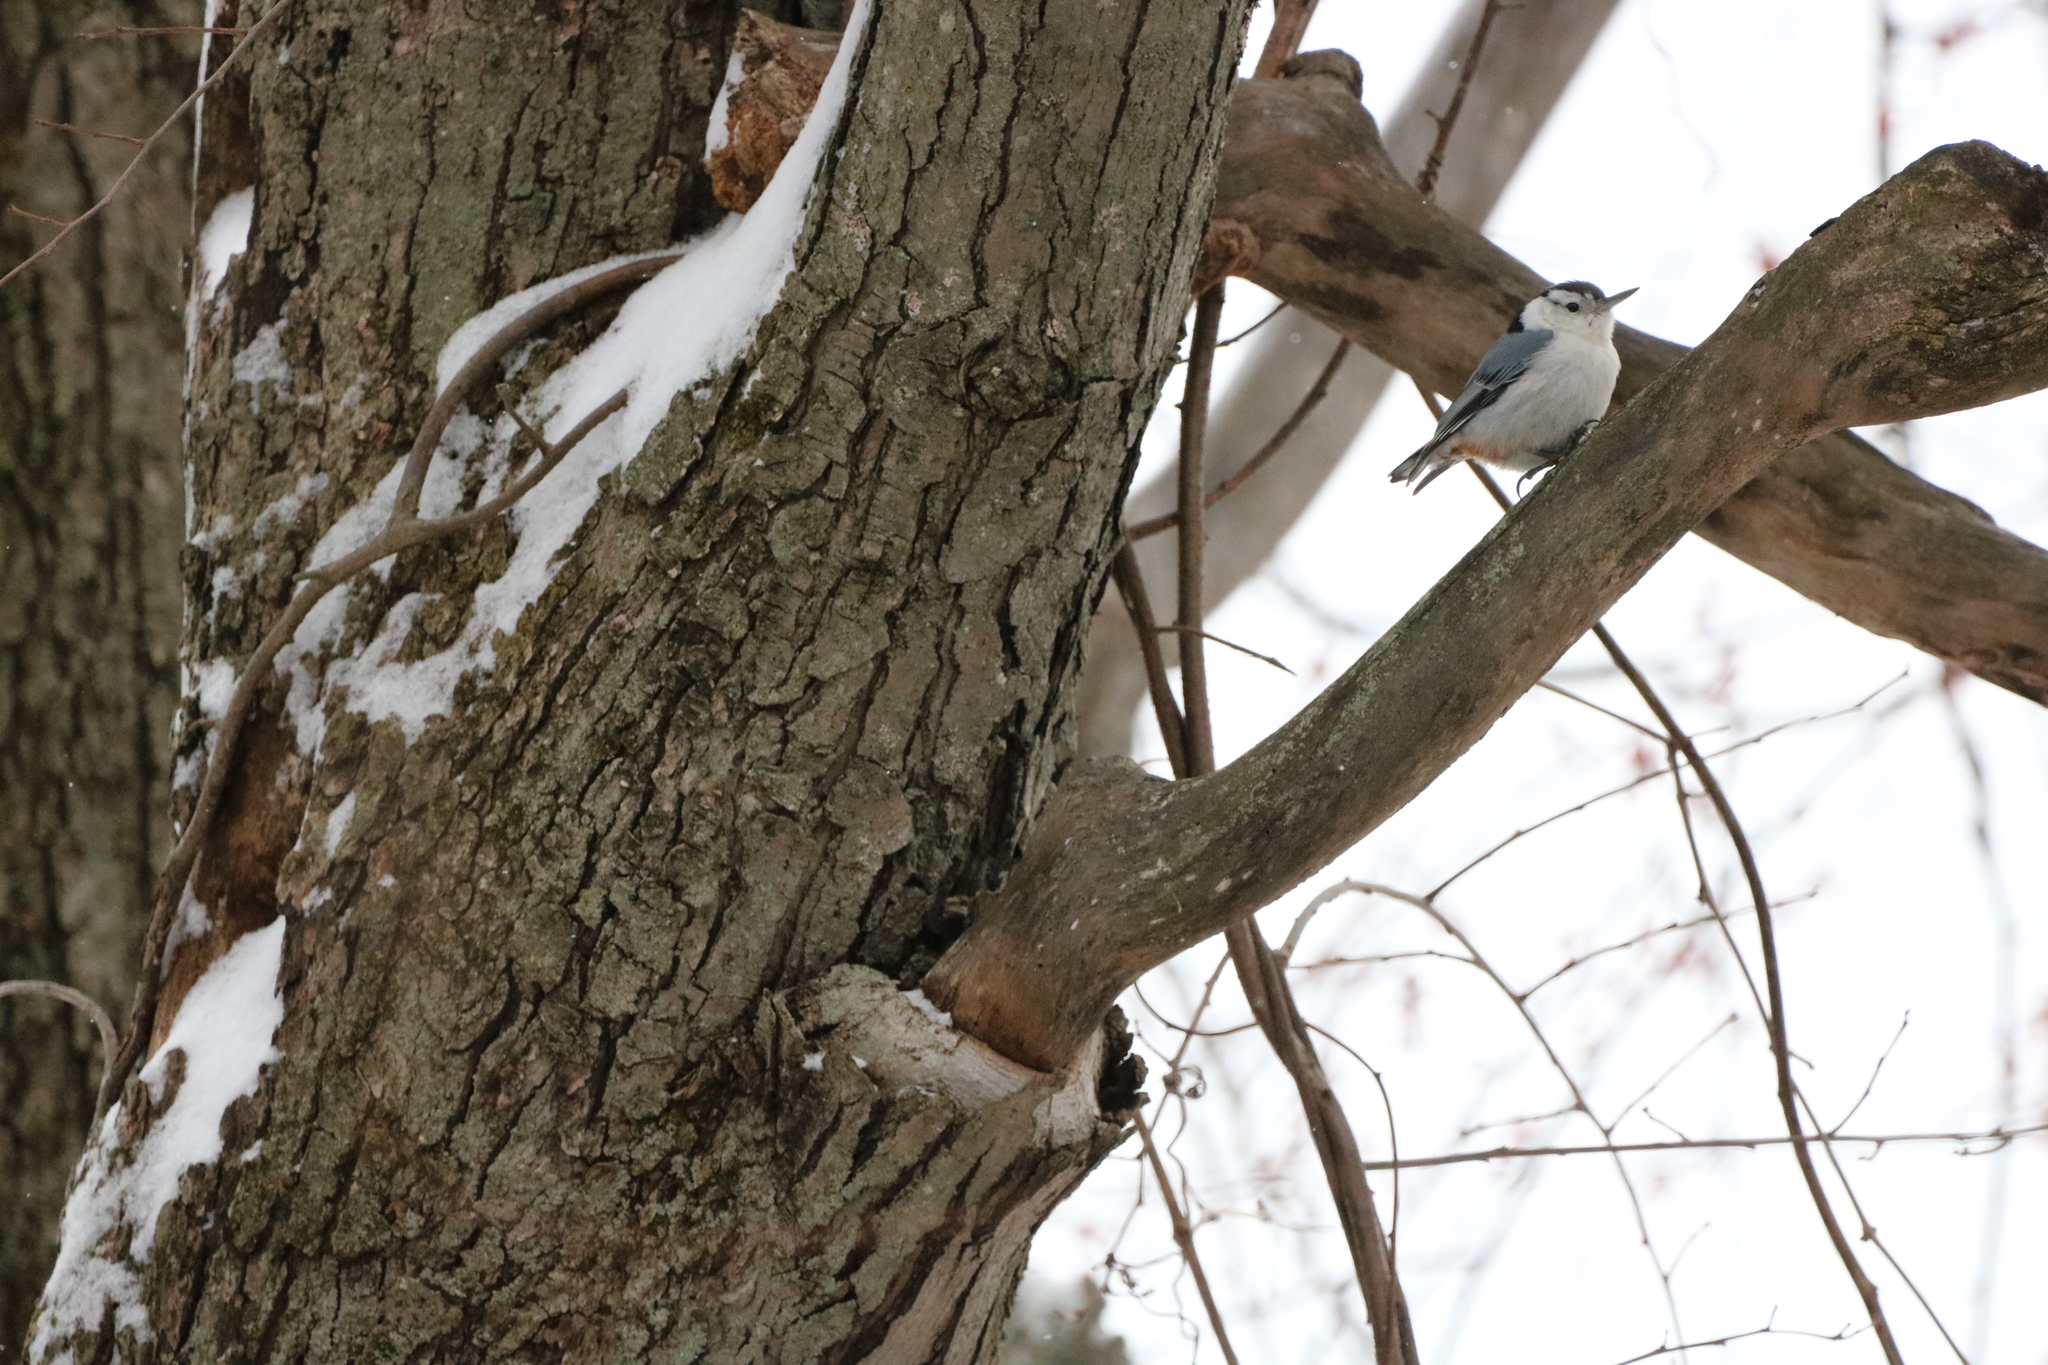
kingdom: Animalia
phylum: Chordata
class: Aves
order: Passeriformes
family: Sittidae
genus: Sitta
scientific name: Sitta carolinensis
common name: White-breasted nuthatch
